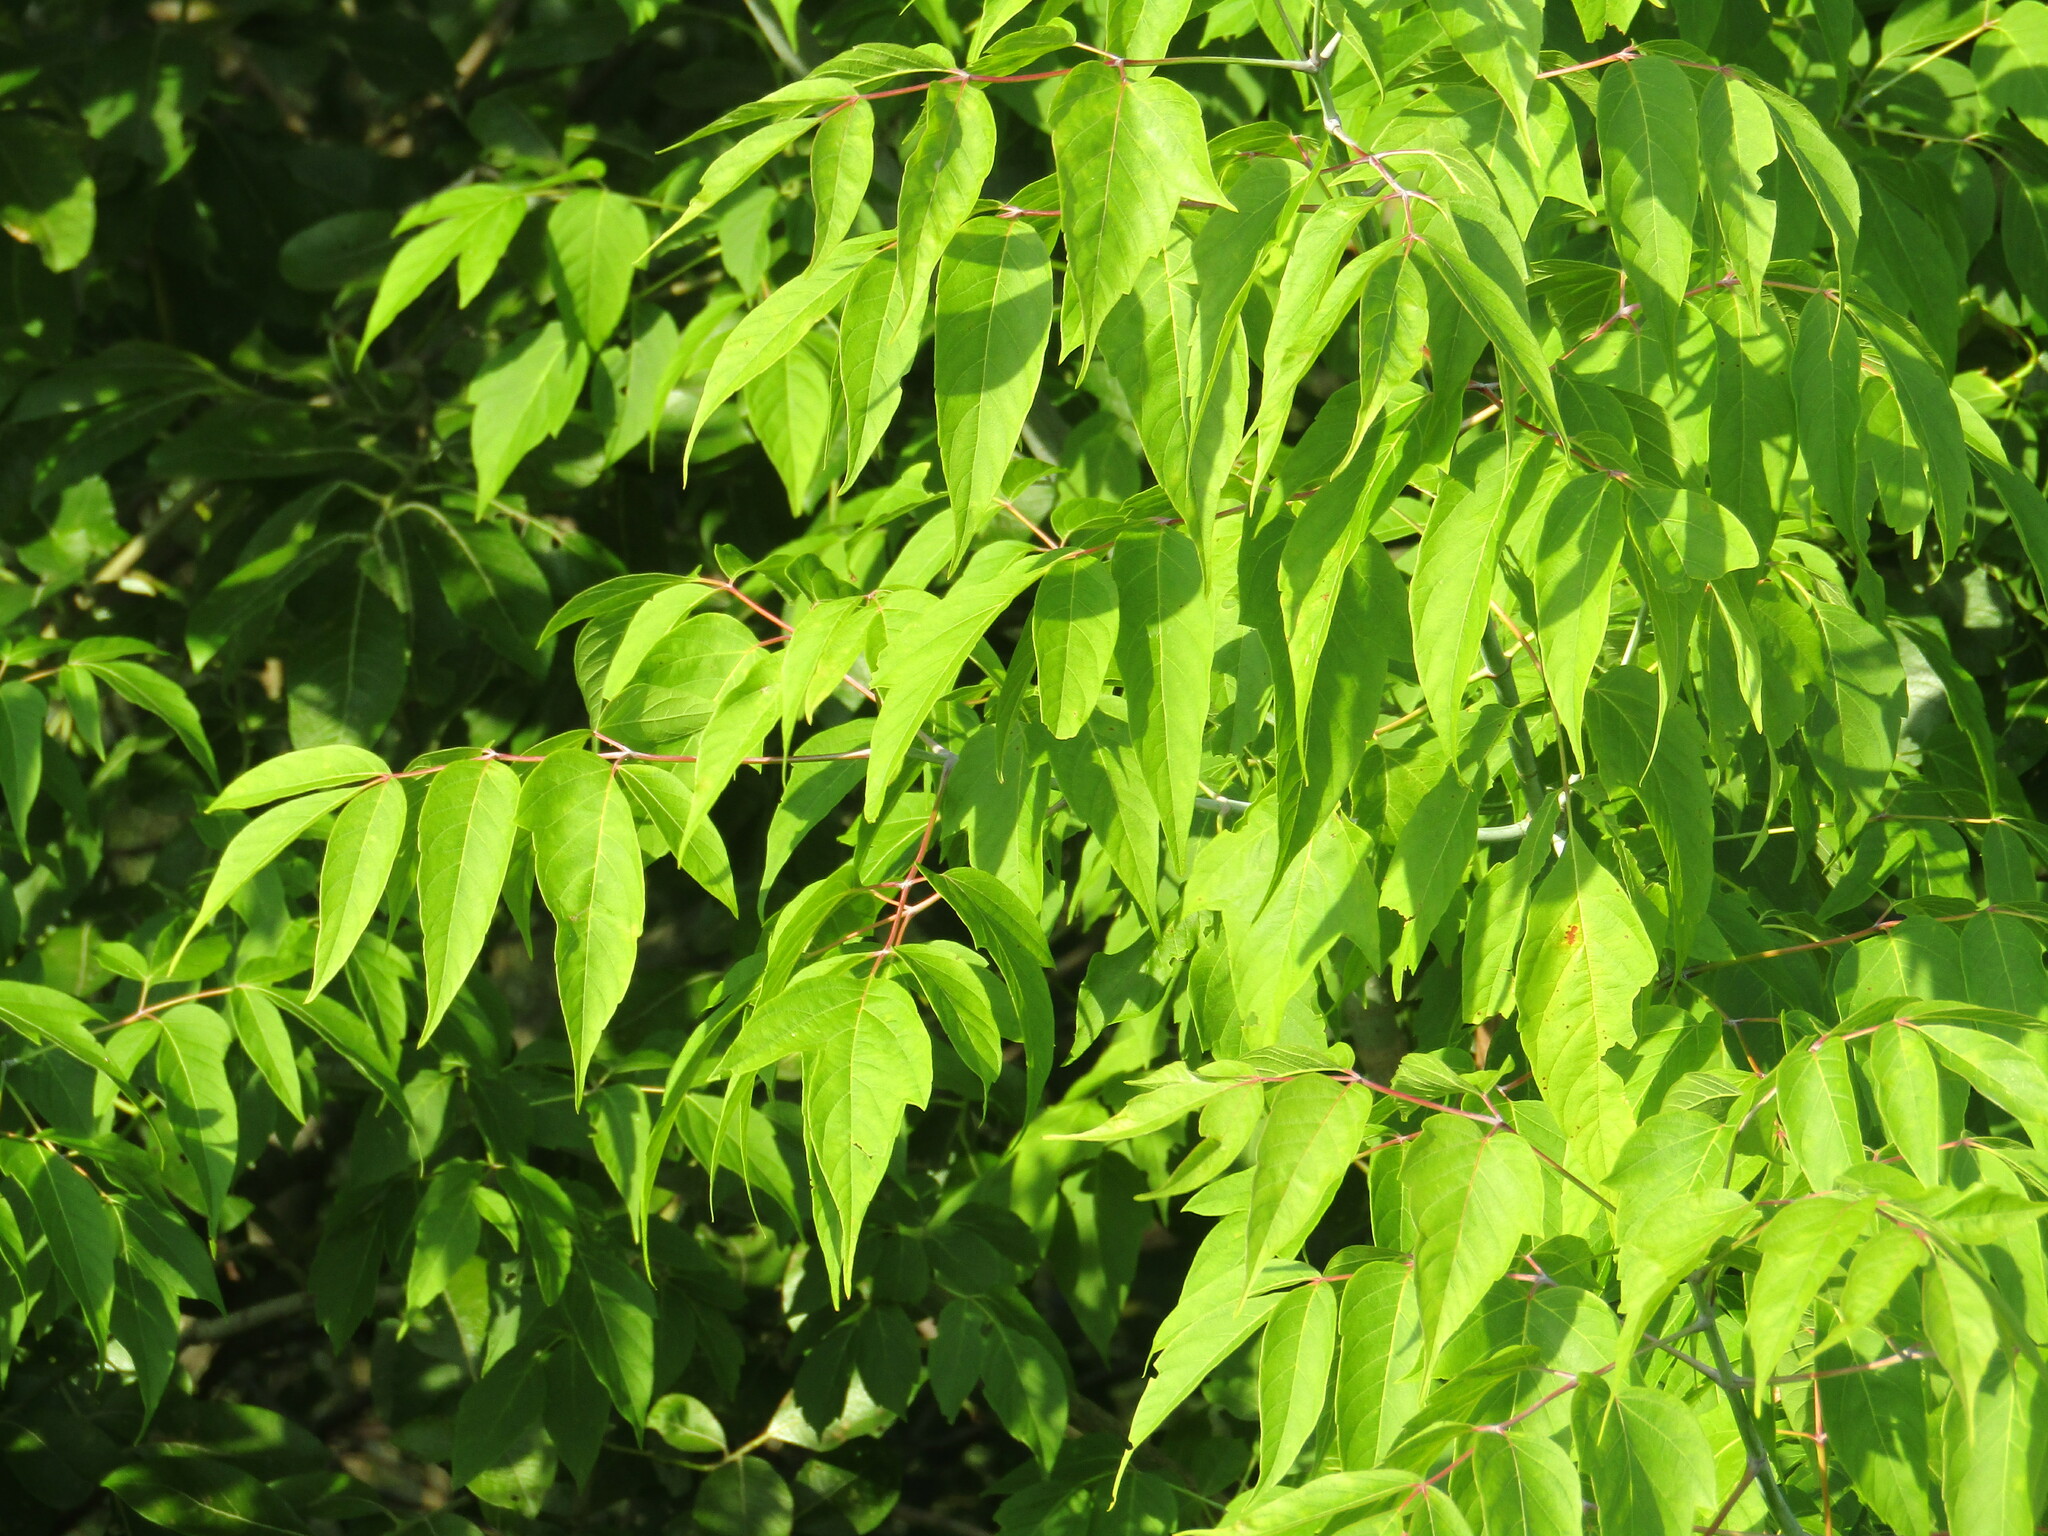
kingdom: Plantae
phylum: Tracheophyta
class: Magnoliopsida
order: Sapindales
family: Sapindaceae
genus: Acer
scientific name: Acer negundo
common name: Ashleaf maple
